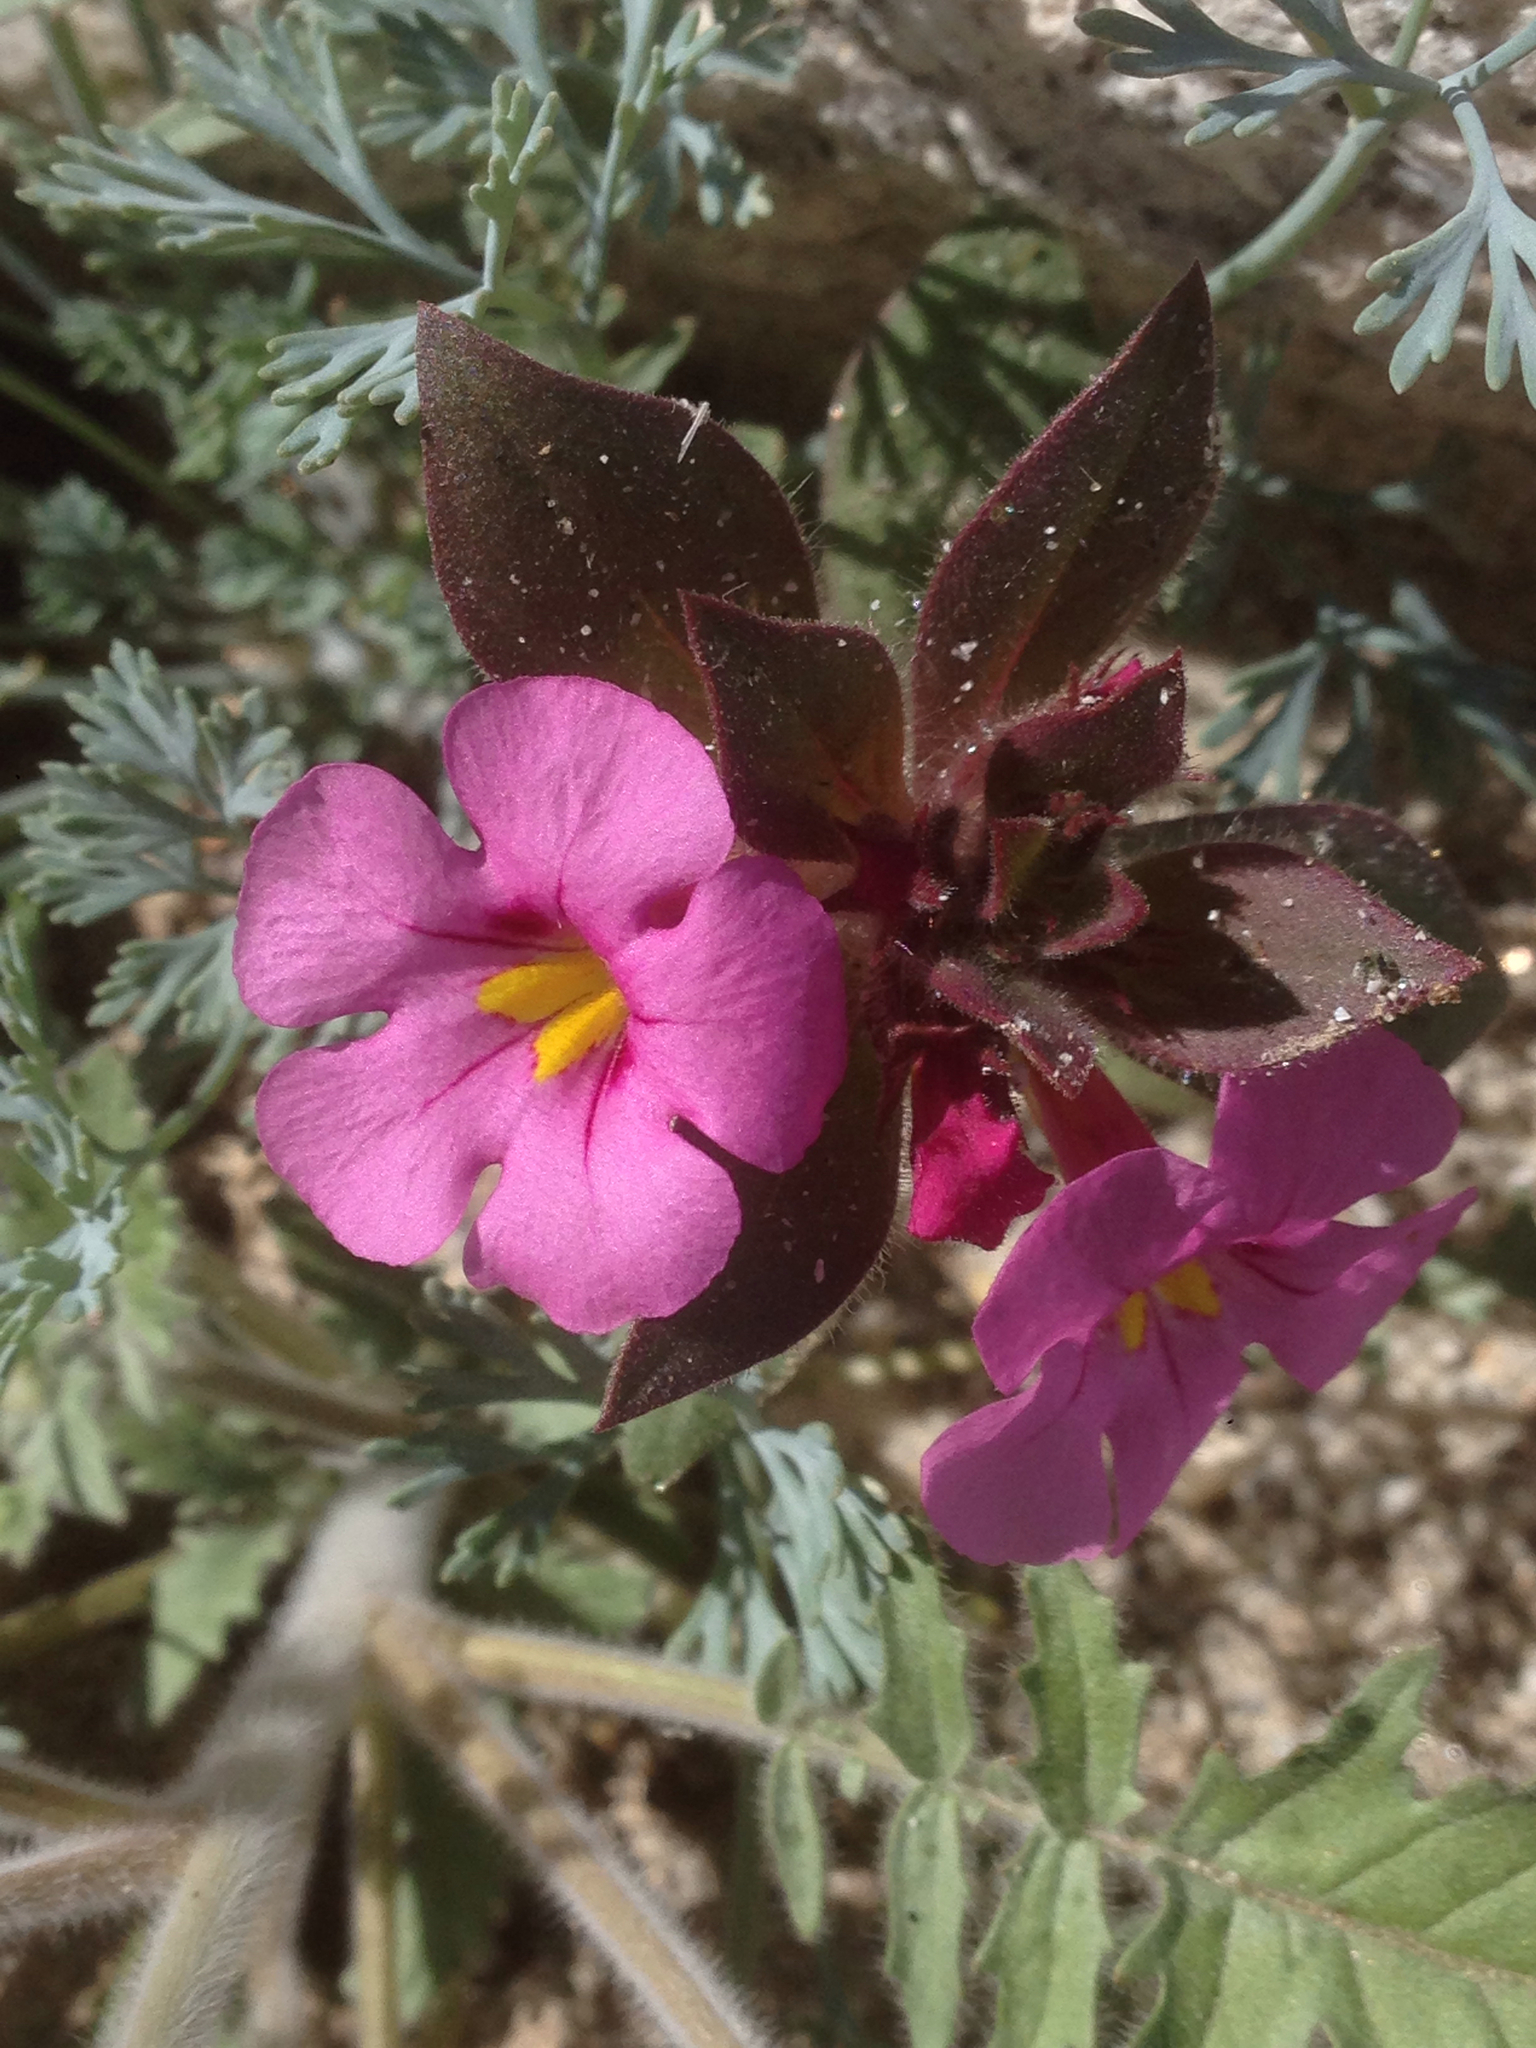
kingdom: Plantae
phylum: Tracheophyta
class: Magnoliopsida
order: Lamiales
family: Phrymaceae
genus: Diplacus
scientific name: Diplacus bigelovii
